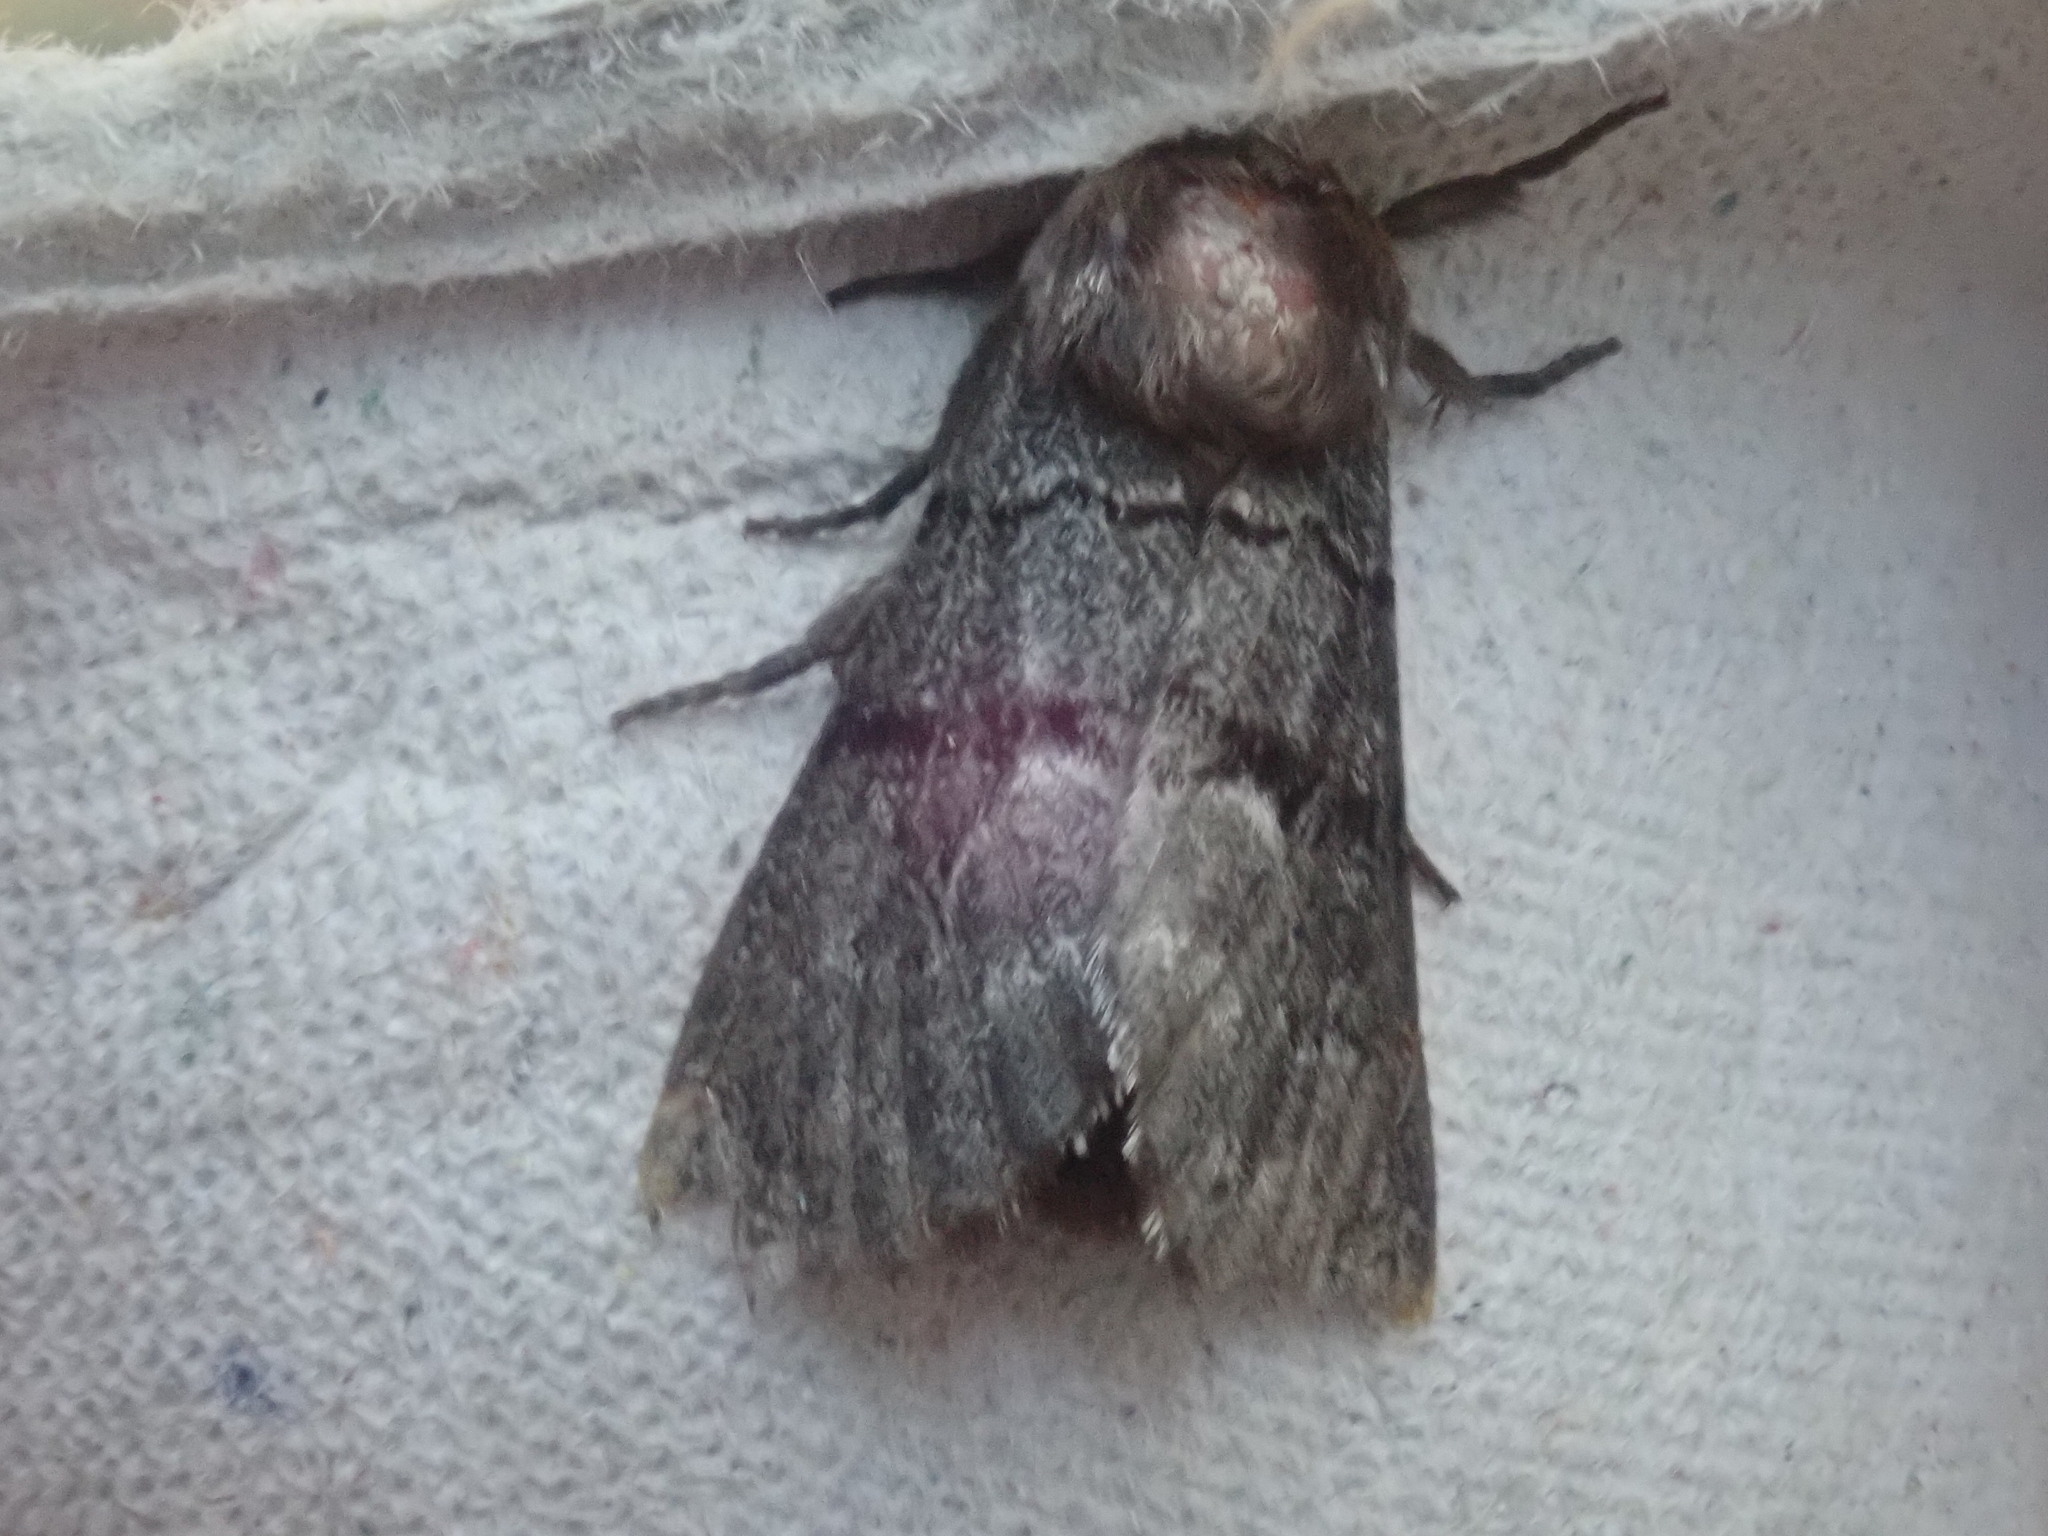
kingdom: Animalia
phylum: Arthropoda
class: Insecta
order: Lepidoptera
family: Noctuidae
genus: Panthea
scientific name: Panthea furcilla
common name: Eastern panthea moth
